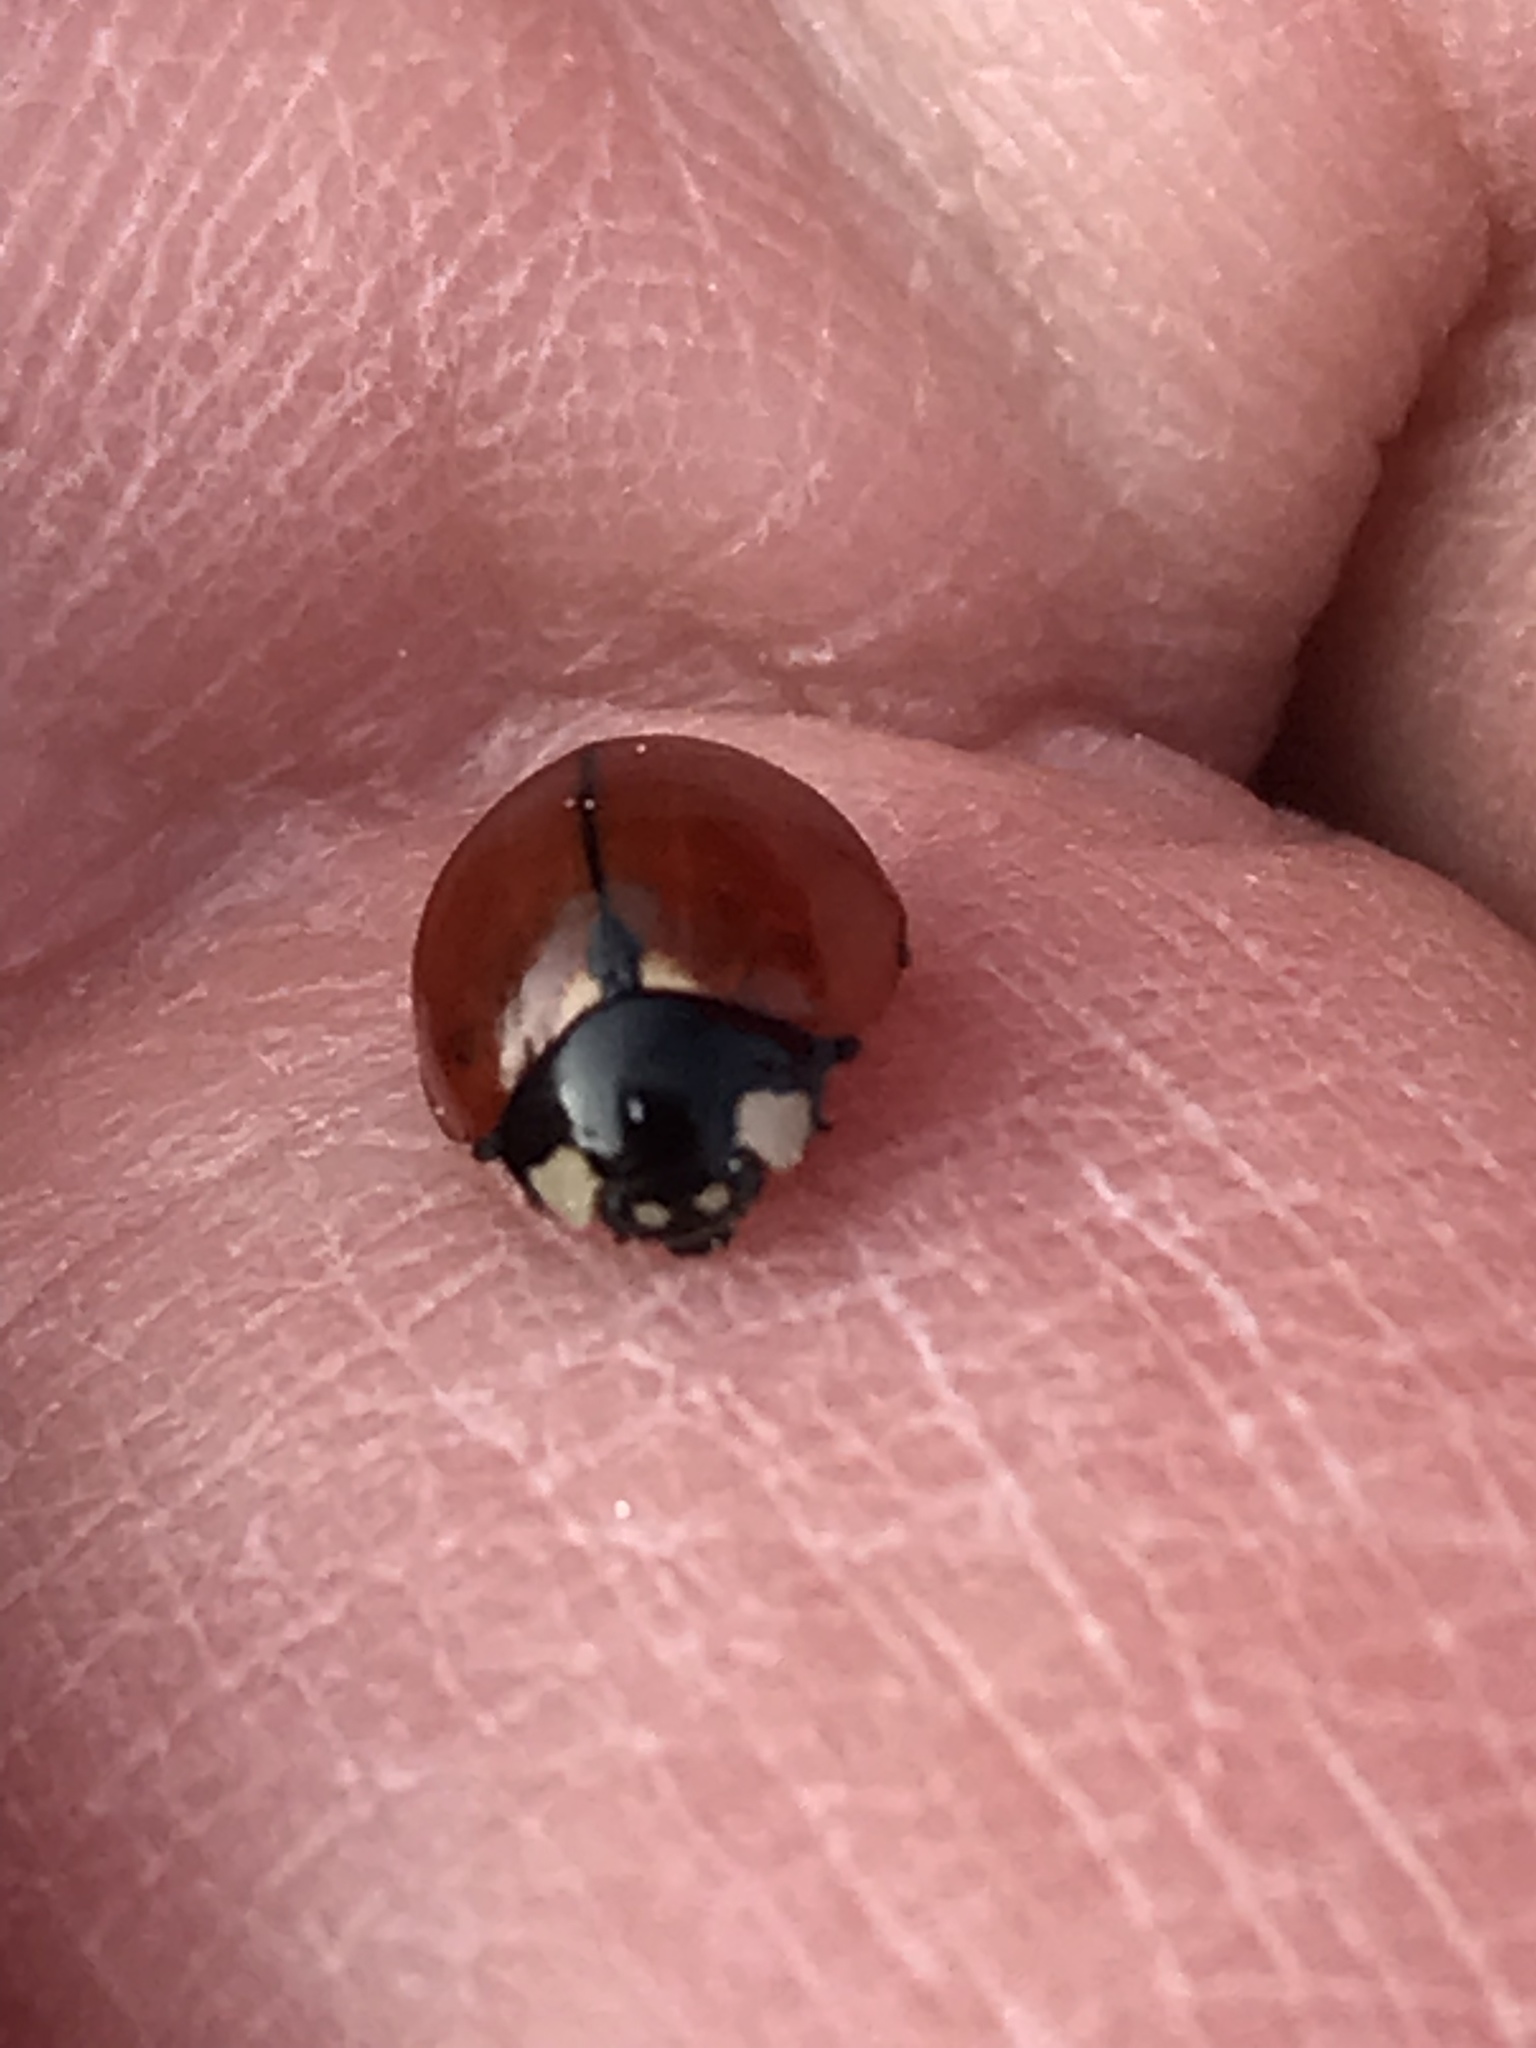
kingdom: Animalia
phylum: Arthropoda
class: Insecta
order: Coleoptera
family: Coccinellidae
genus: Coccinella
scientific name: Coccinella californica
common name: Lady beetle
